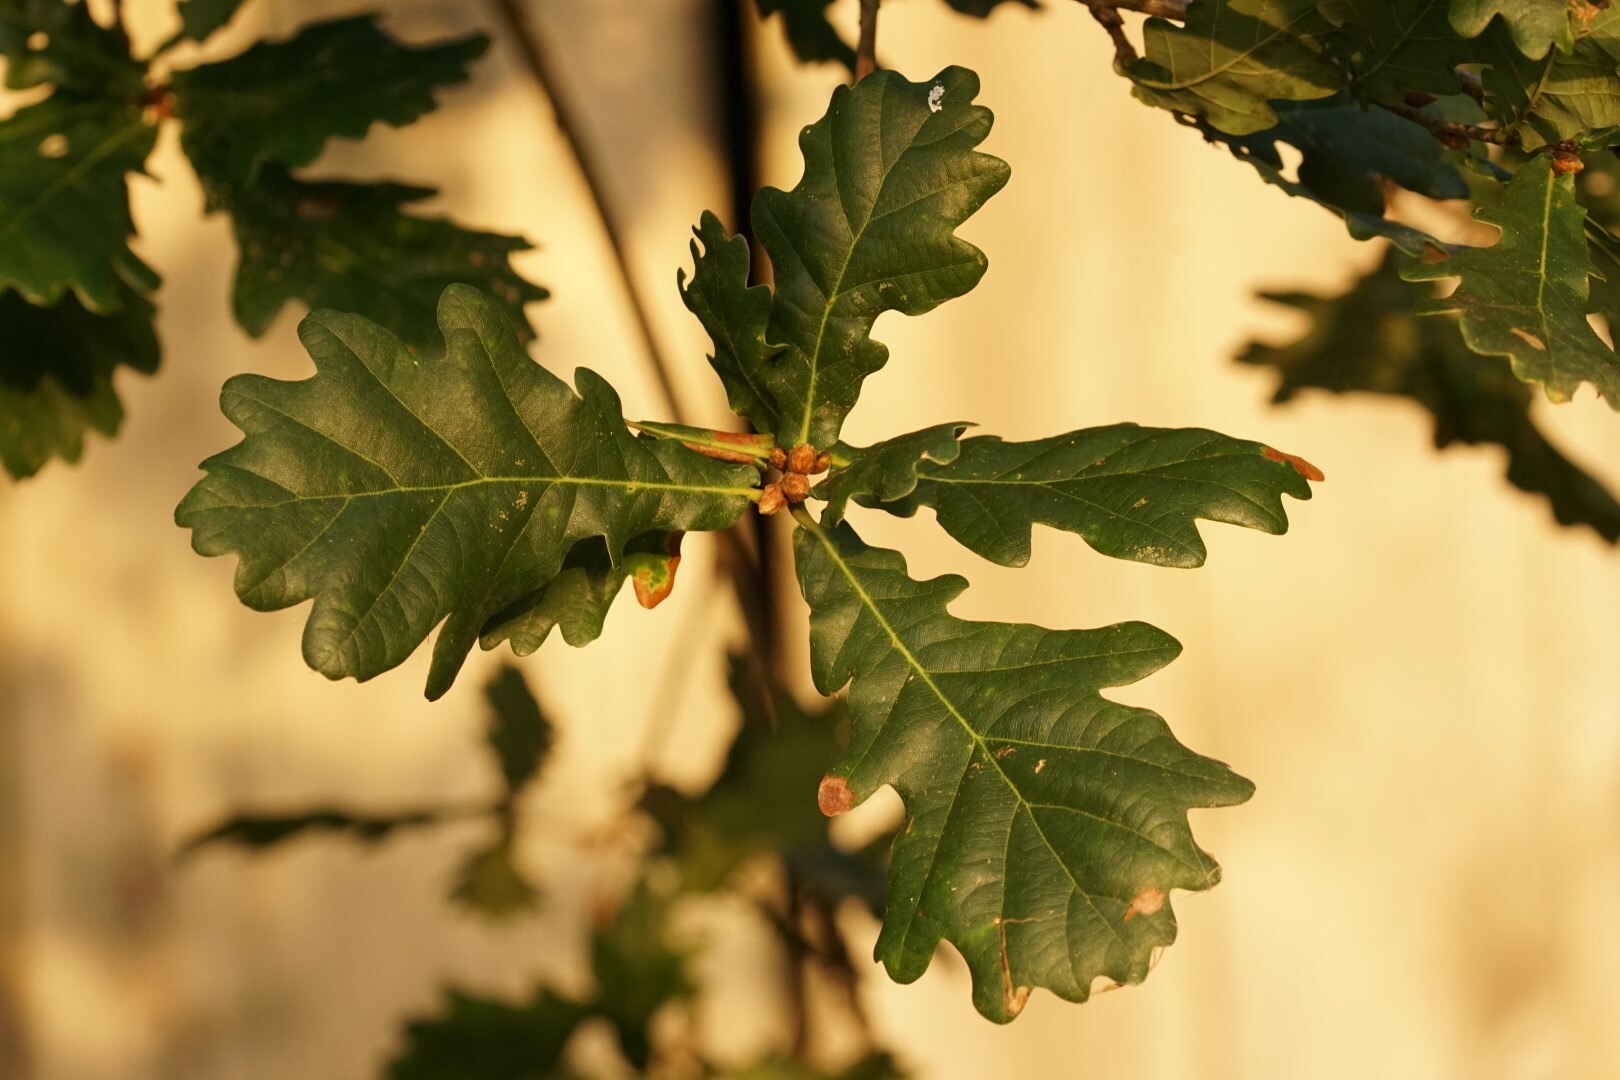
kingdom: Plantae
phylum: Tracheophyta
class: Magnoliopsida
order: Fagales
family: Fagaceae
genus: Quercus
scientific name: Quercus robur
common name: Pedunculate oak
